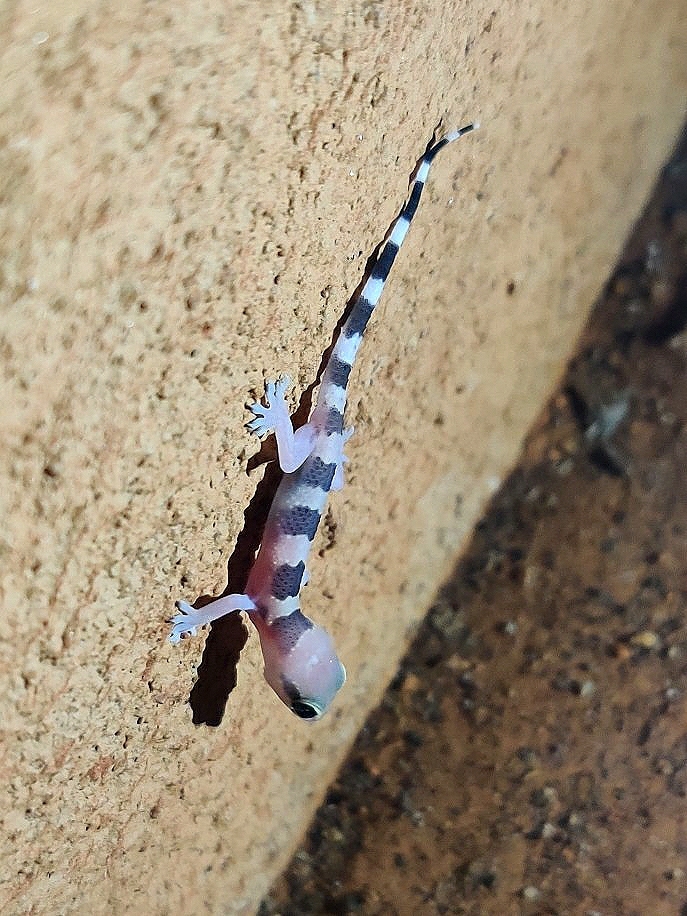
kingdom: Animalia
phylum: Chordata
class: Squamata
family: Gekkonidae
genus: Hemidactylus
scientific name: Hemidactylus whitakeri
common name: Whitaker’s termite hill gecko
